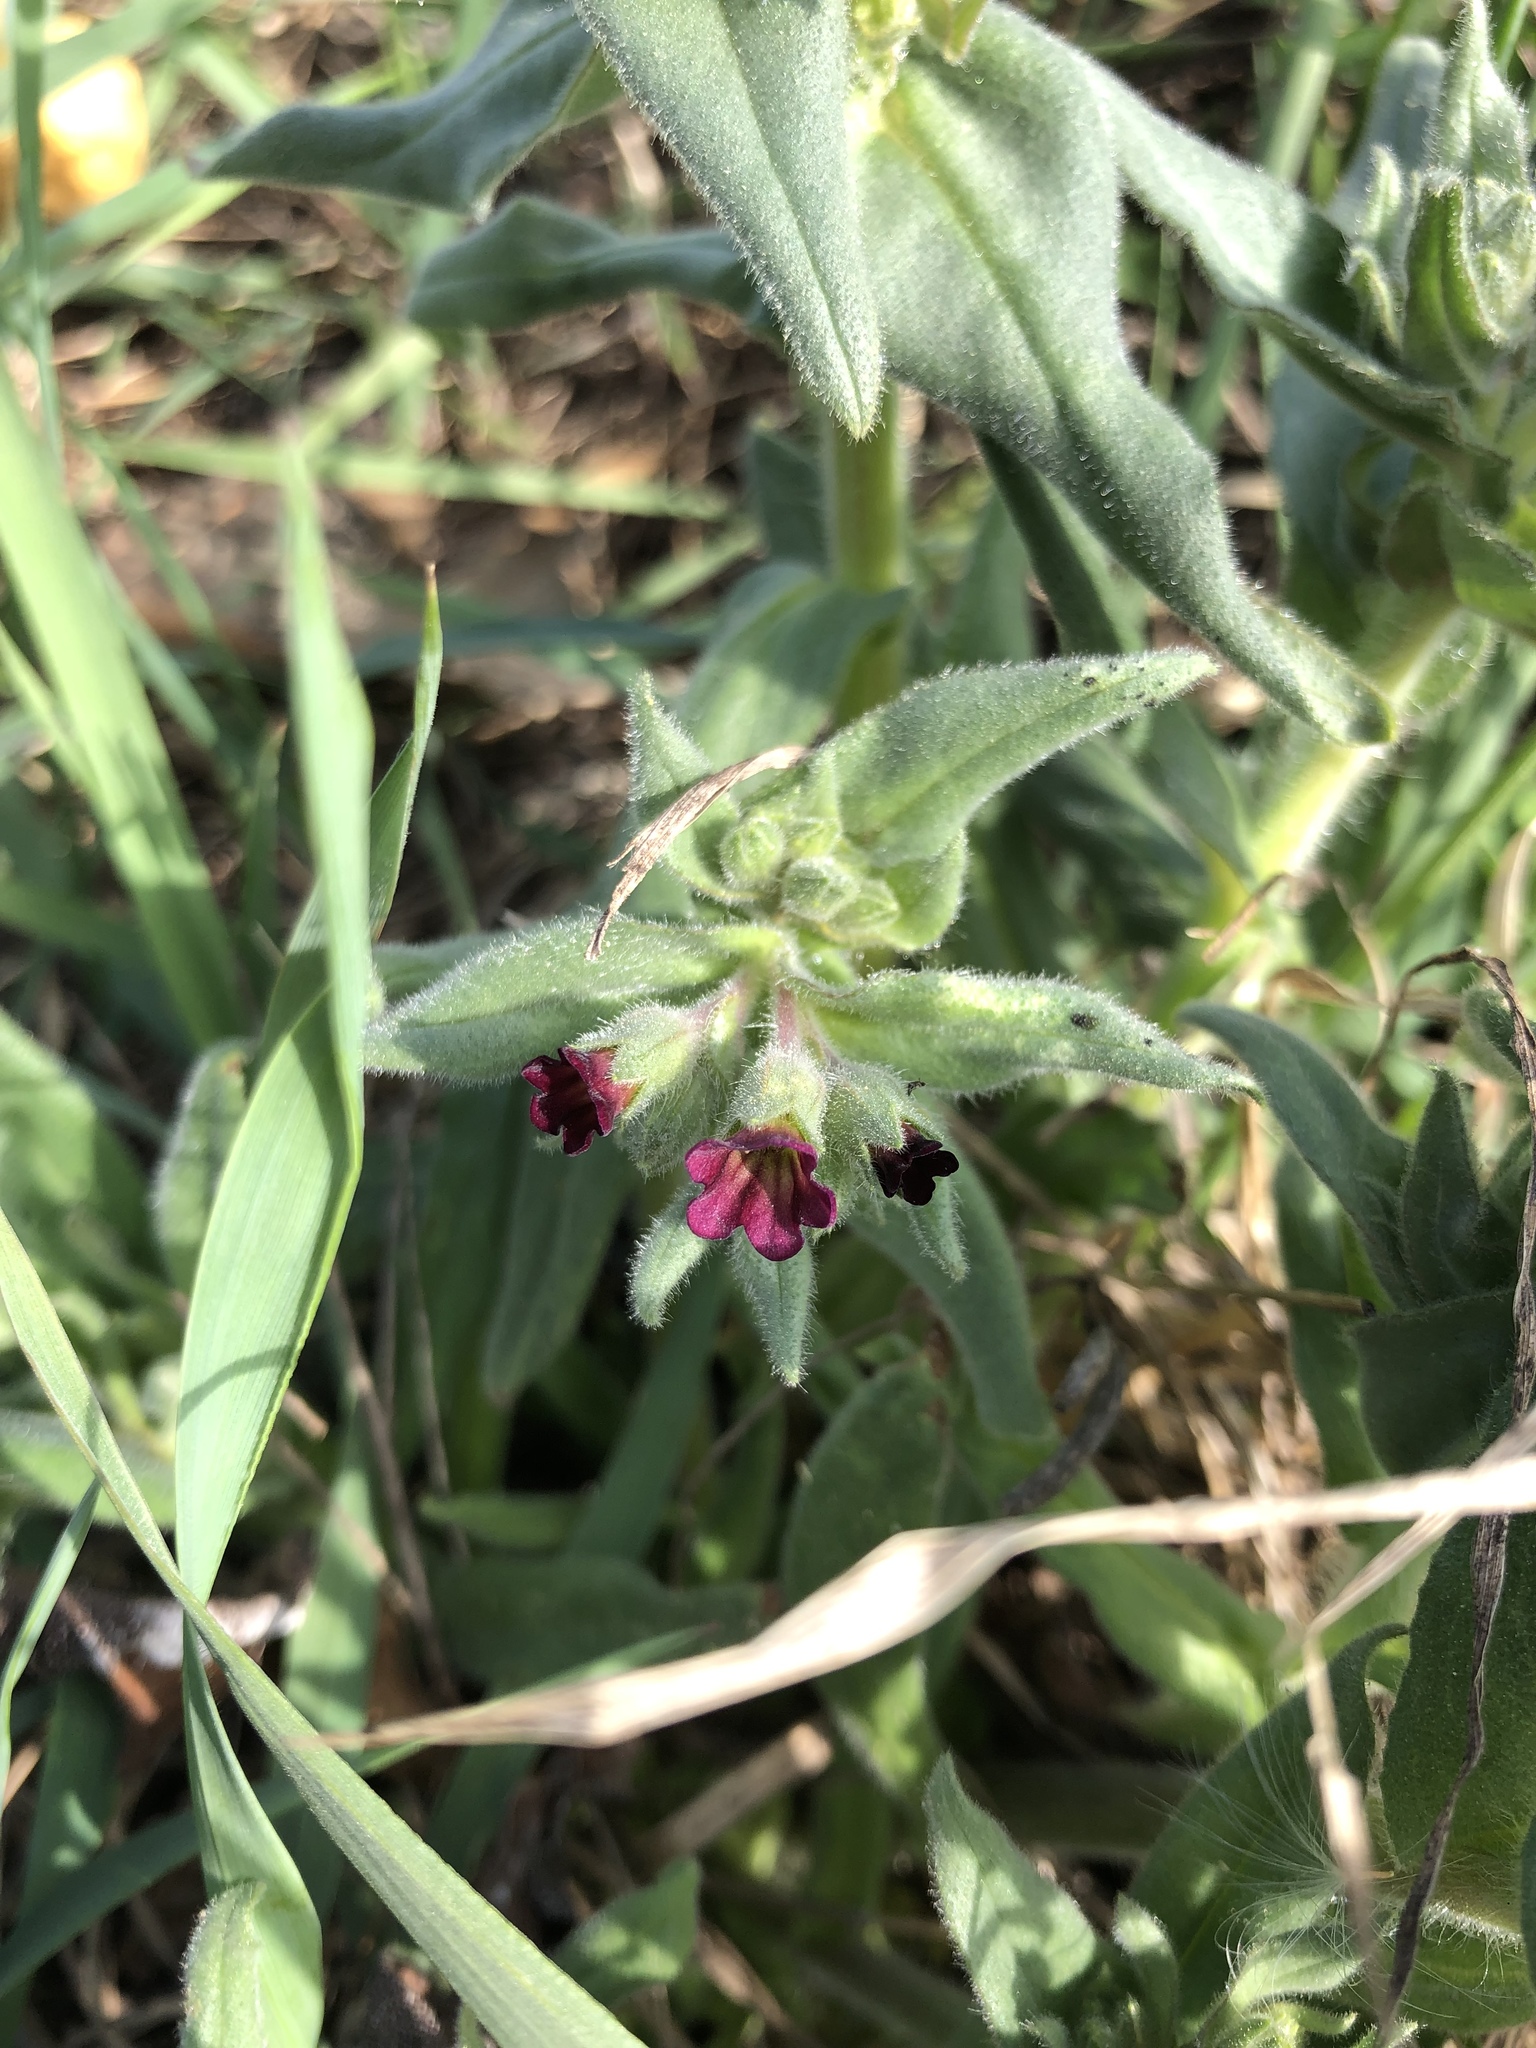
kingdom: Plantae
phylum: Tracheophyta
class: Magnoliopsida
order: Boraginales
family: Boraginaceae
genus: Nonea
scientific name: Nonea pulla
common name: Brown nonea
